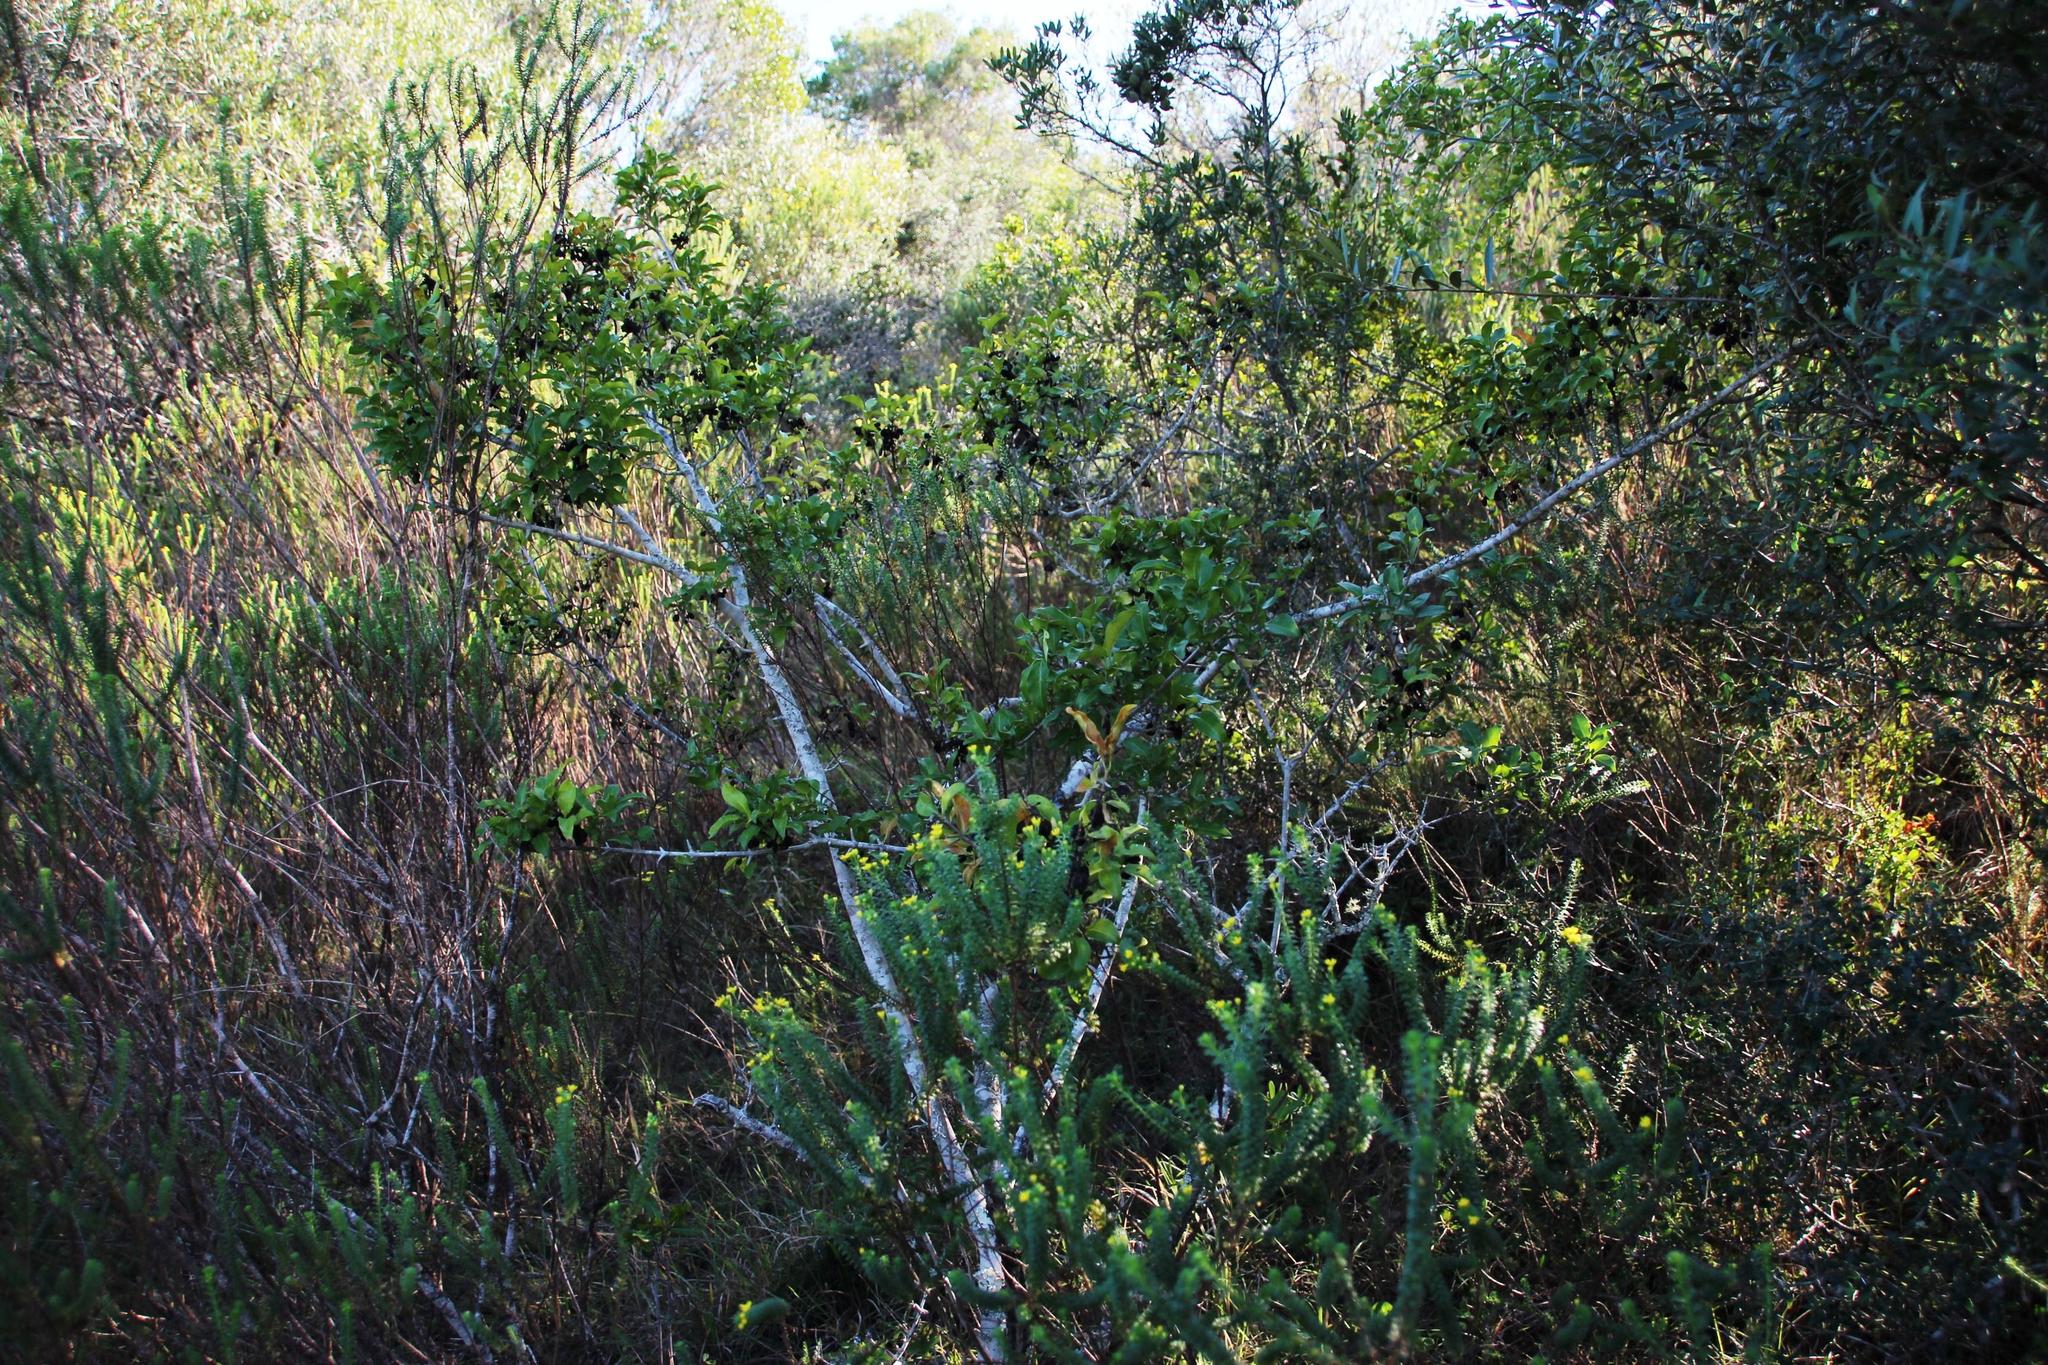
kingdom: Plantae
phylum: Tracheophyta
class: Magnoliopsida
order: Gentianales
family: Rubiaceae
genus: Canthium
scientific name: Canthium inerme
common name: Unarmed turkey-berry
